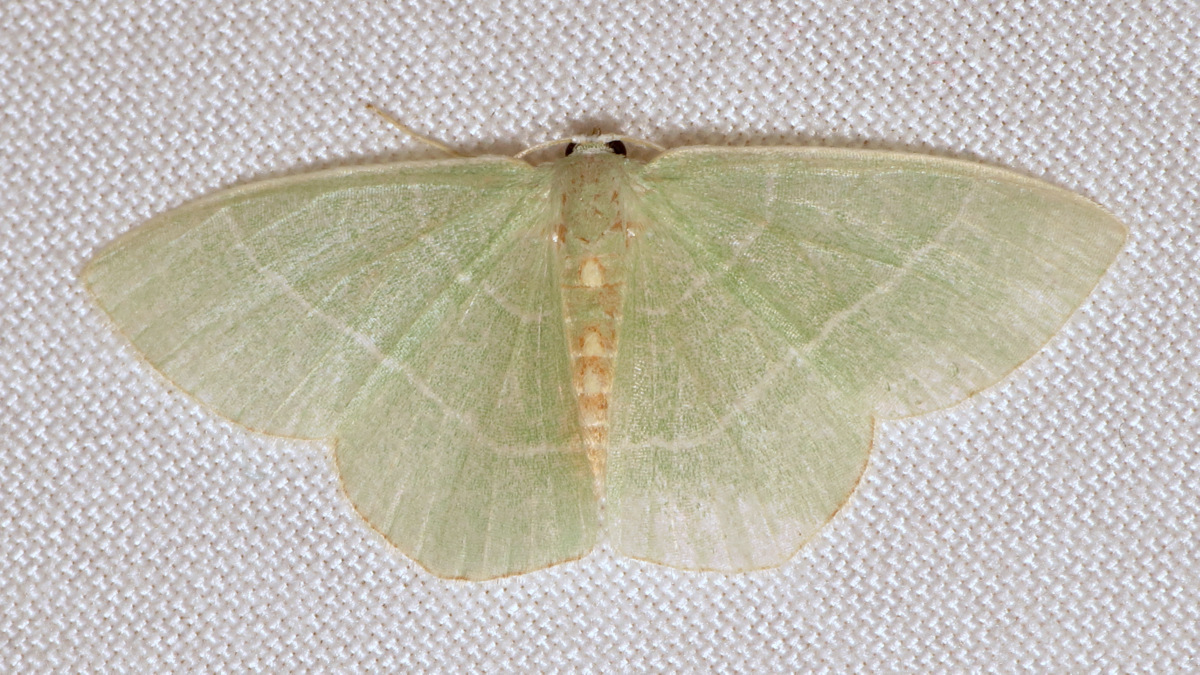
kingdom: Animalia
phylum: Arthropoda
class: Insecta
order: Lepidoptera
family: Geometridae
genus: Nemoria
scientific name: Nemoria bistriaria
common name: Red-fringed emerald
